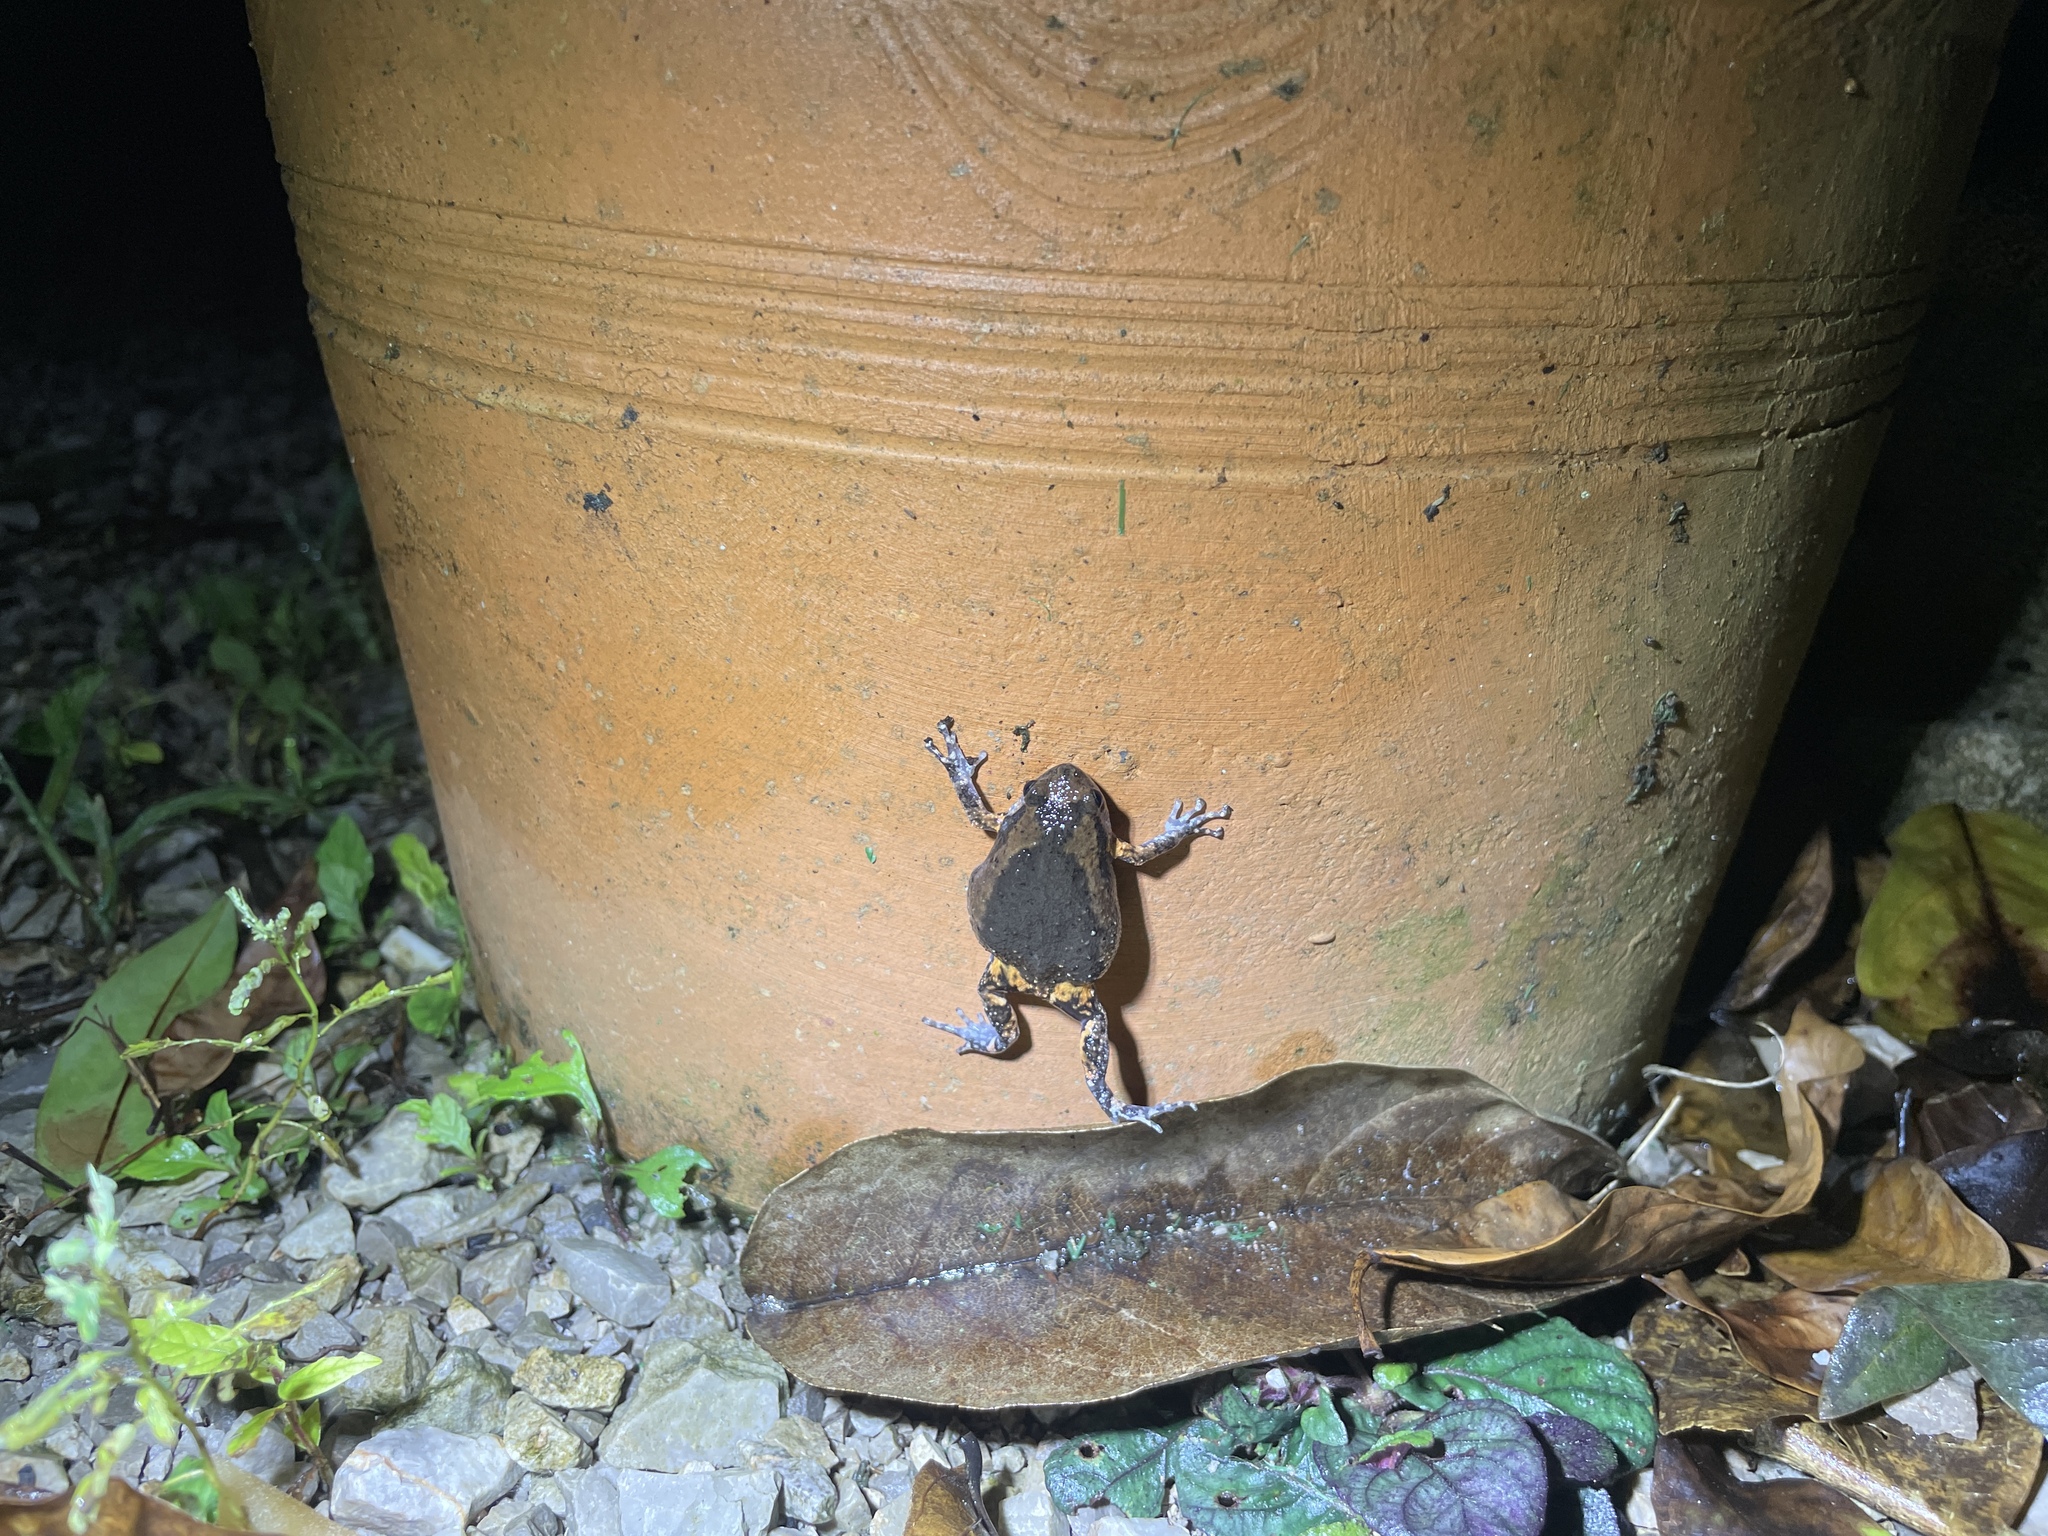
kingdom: Animalia
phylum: Chordata
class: Amphibia
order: Anura
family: Microhylidae
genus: Kaloula
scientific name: Kaloula pulchra
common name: Common,banded bullfrog
